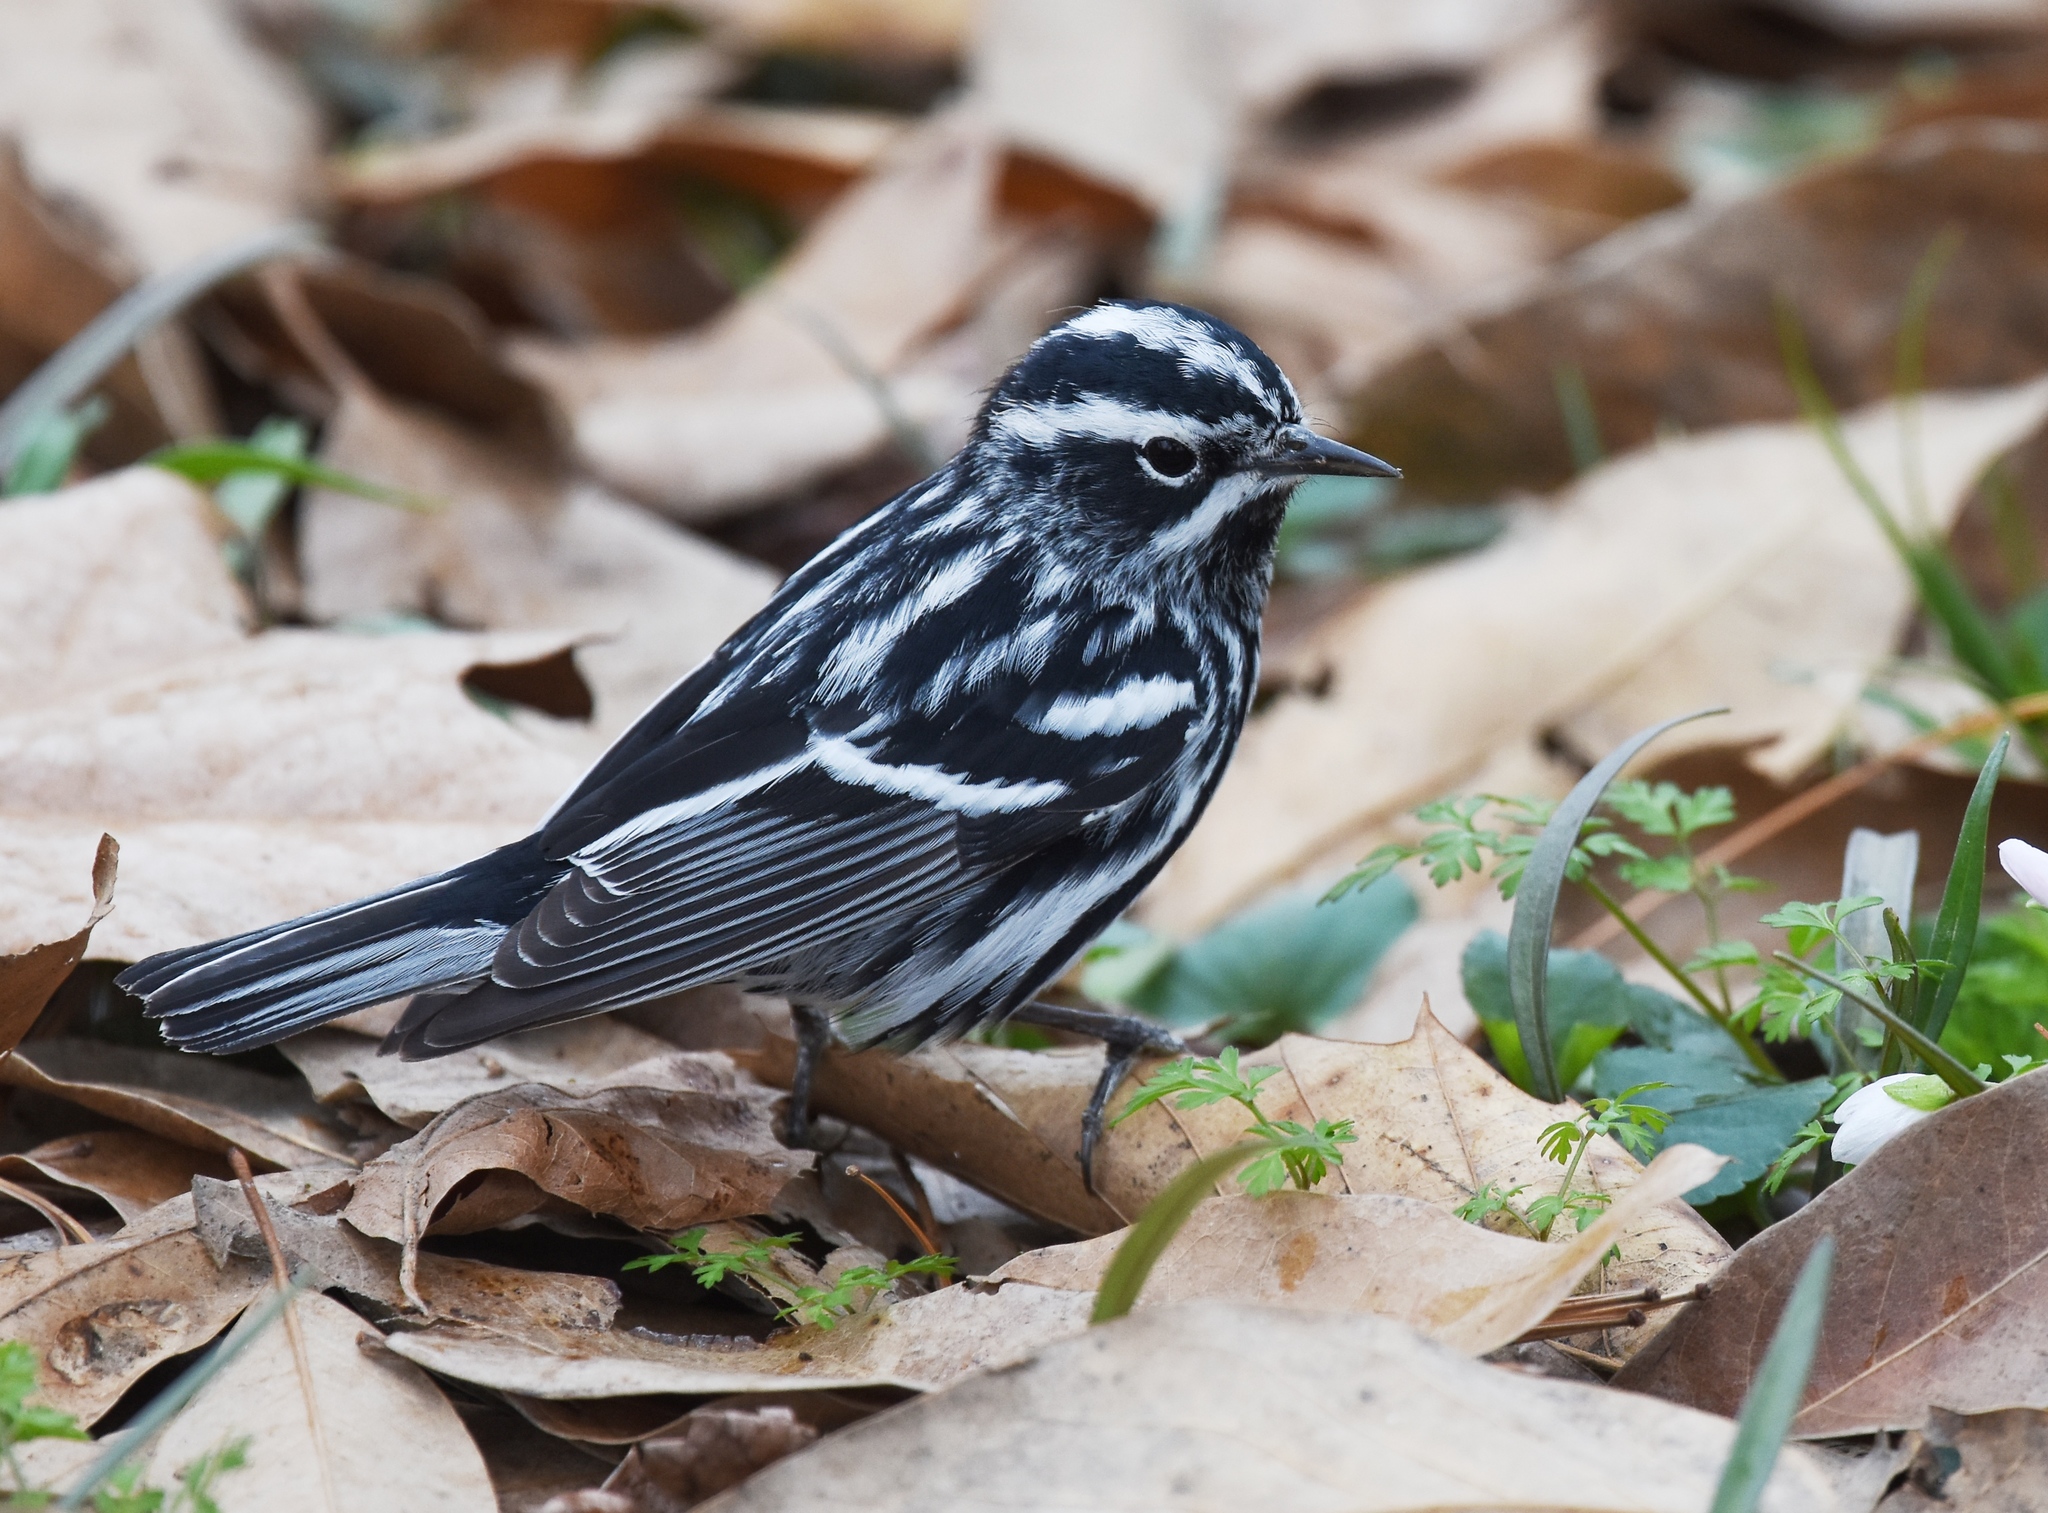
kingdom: Animalia
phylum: Chordata
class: Aves
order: Passeriformes
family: Parulidae
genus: Mniotilta
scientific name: Mniotilta varia
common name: Black-and-white warbler
